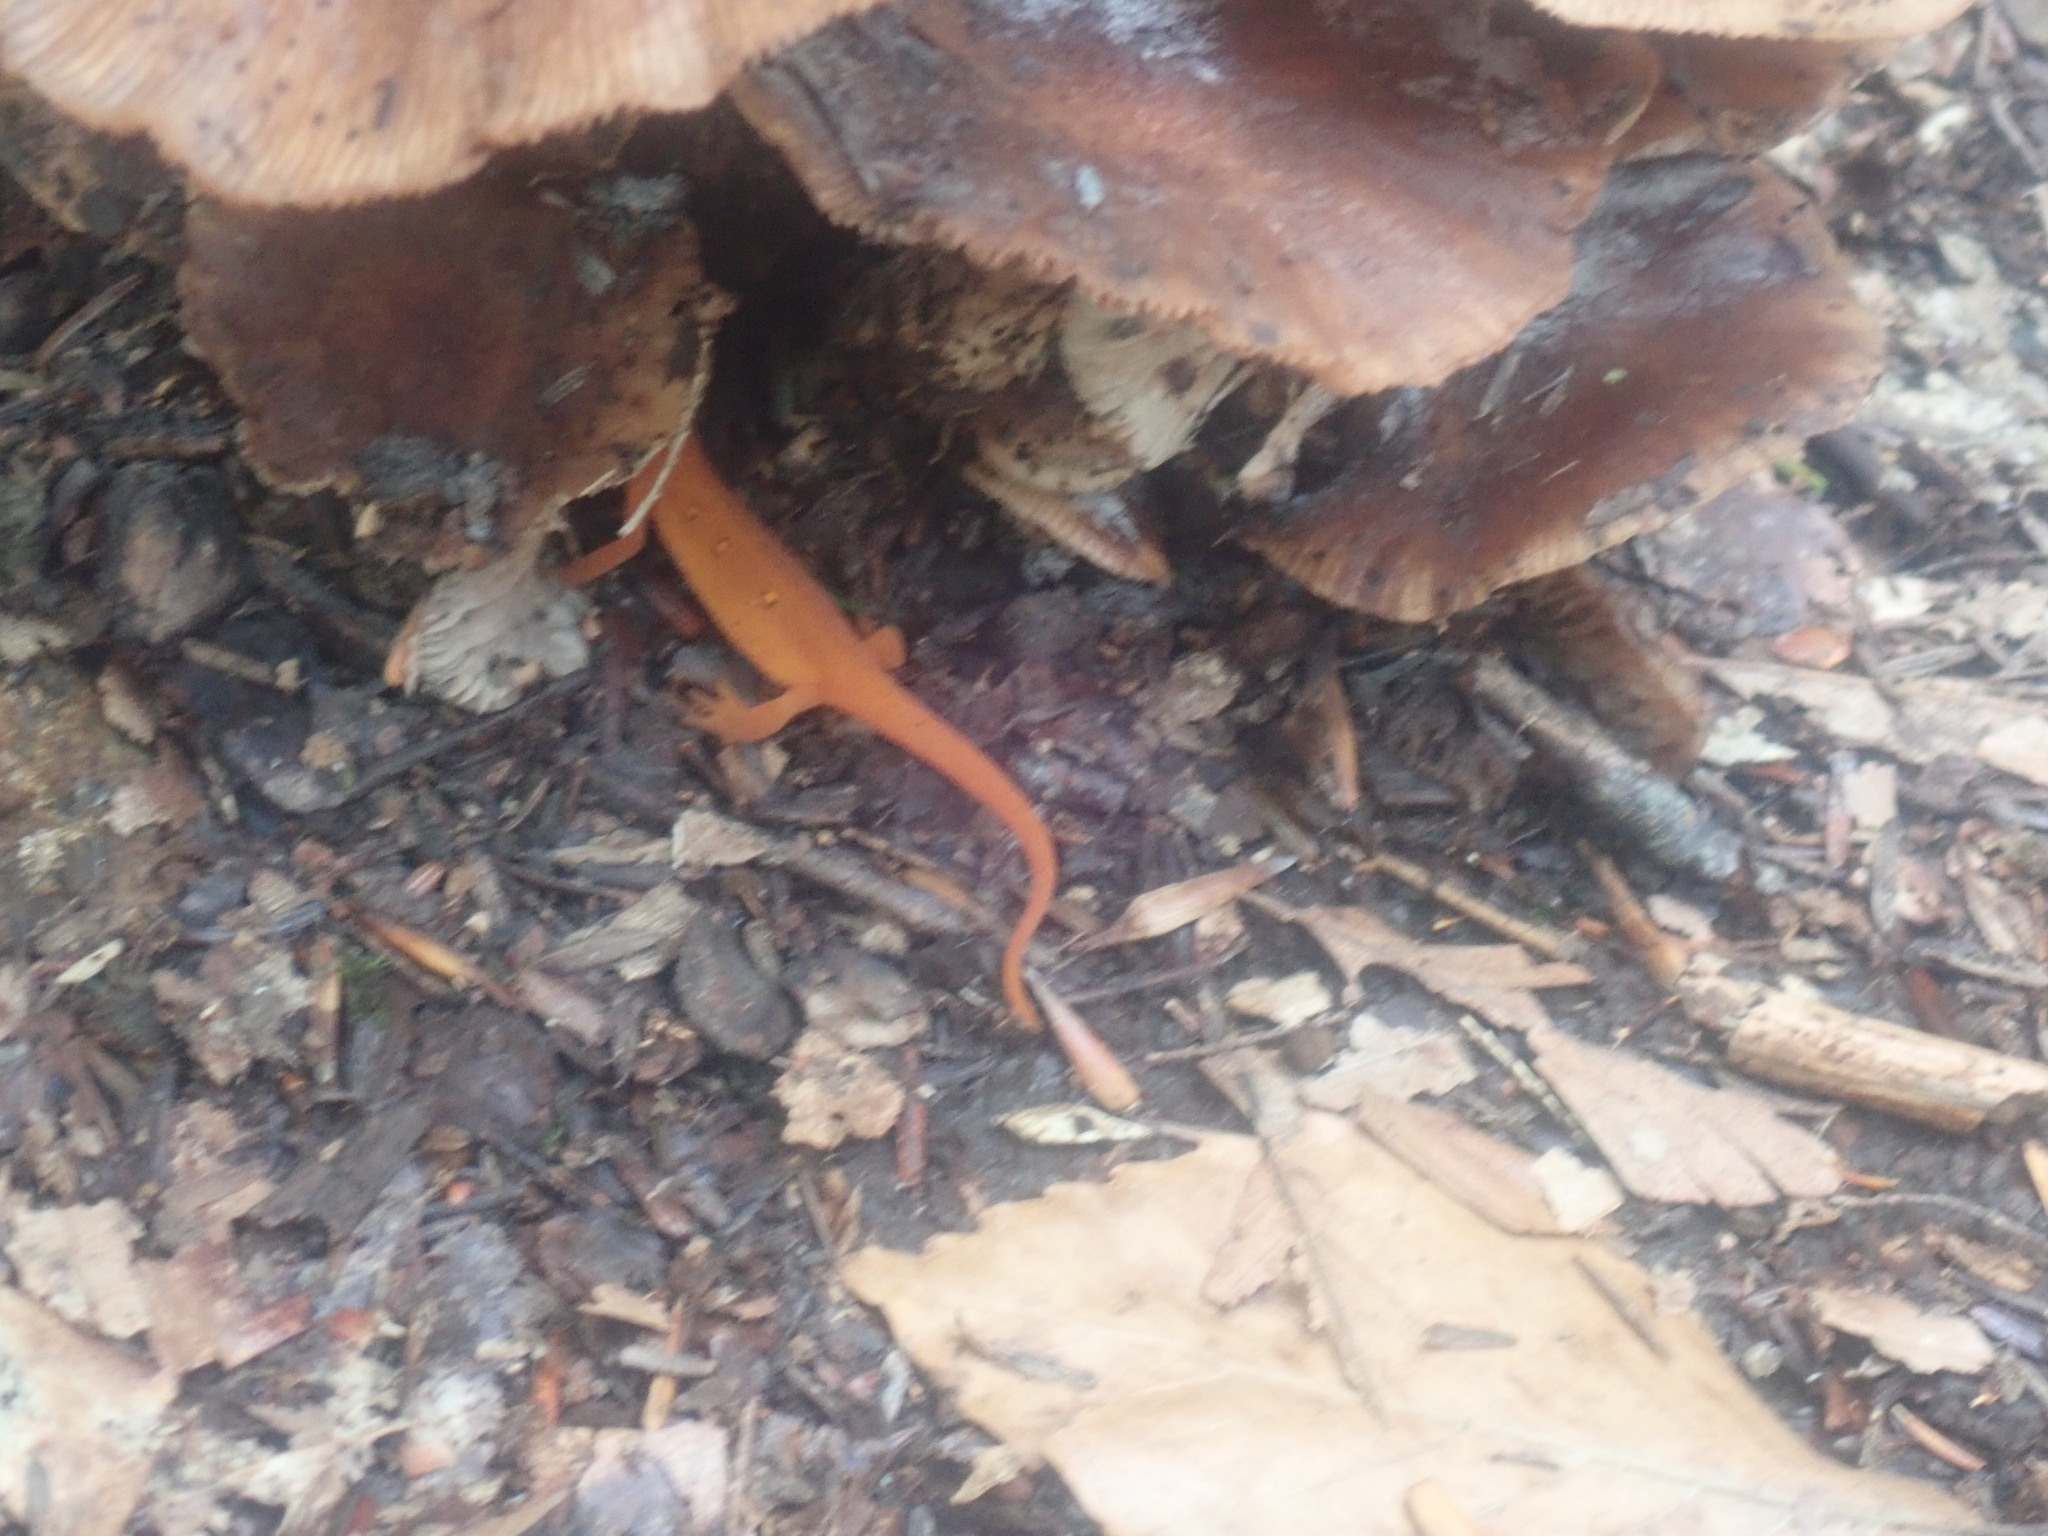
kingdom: Animalia
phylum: Chordata
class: Amphibia
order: Caudata
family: Salamandridae
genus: Notophthalmus
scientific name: Notophthalmus viridescens
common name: Eastern newt
